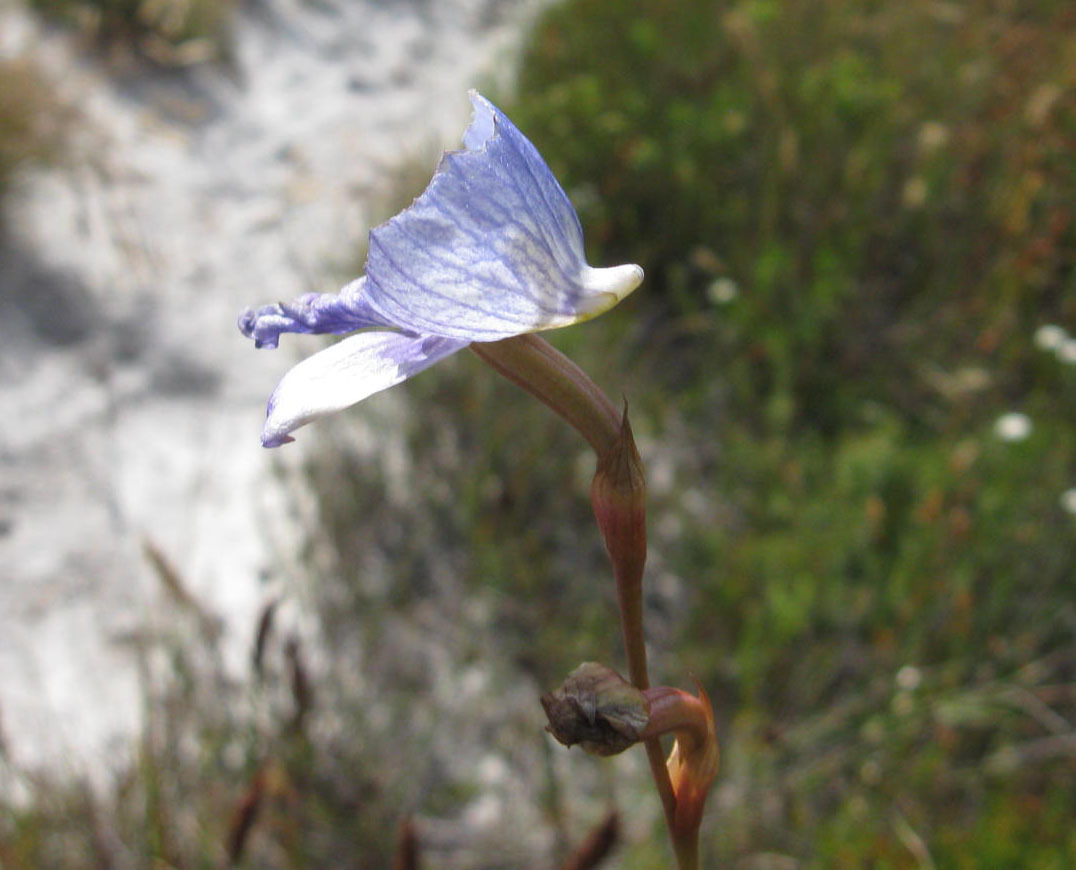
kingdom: Plantae
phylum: Tracheophyta
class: Liliopsida
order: Asparagales
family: Orchidaceae
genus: Disa
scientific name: Disa purpurascens
